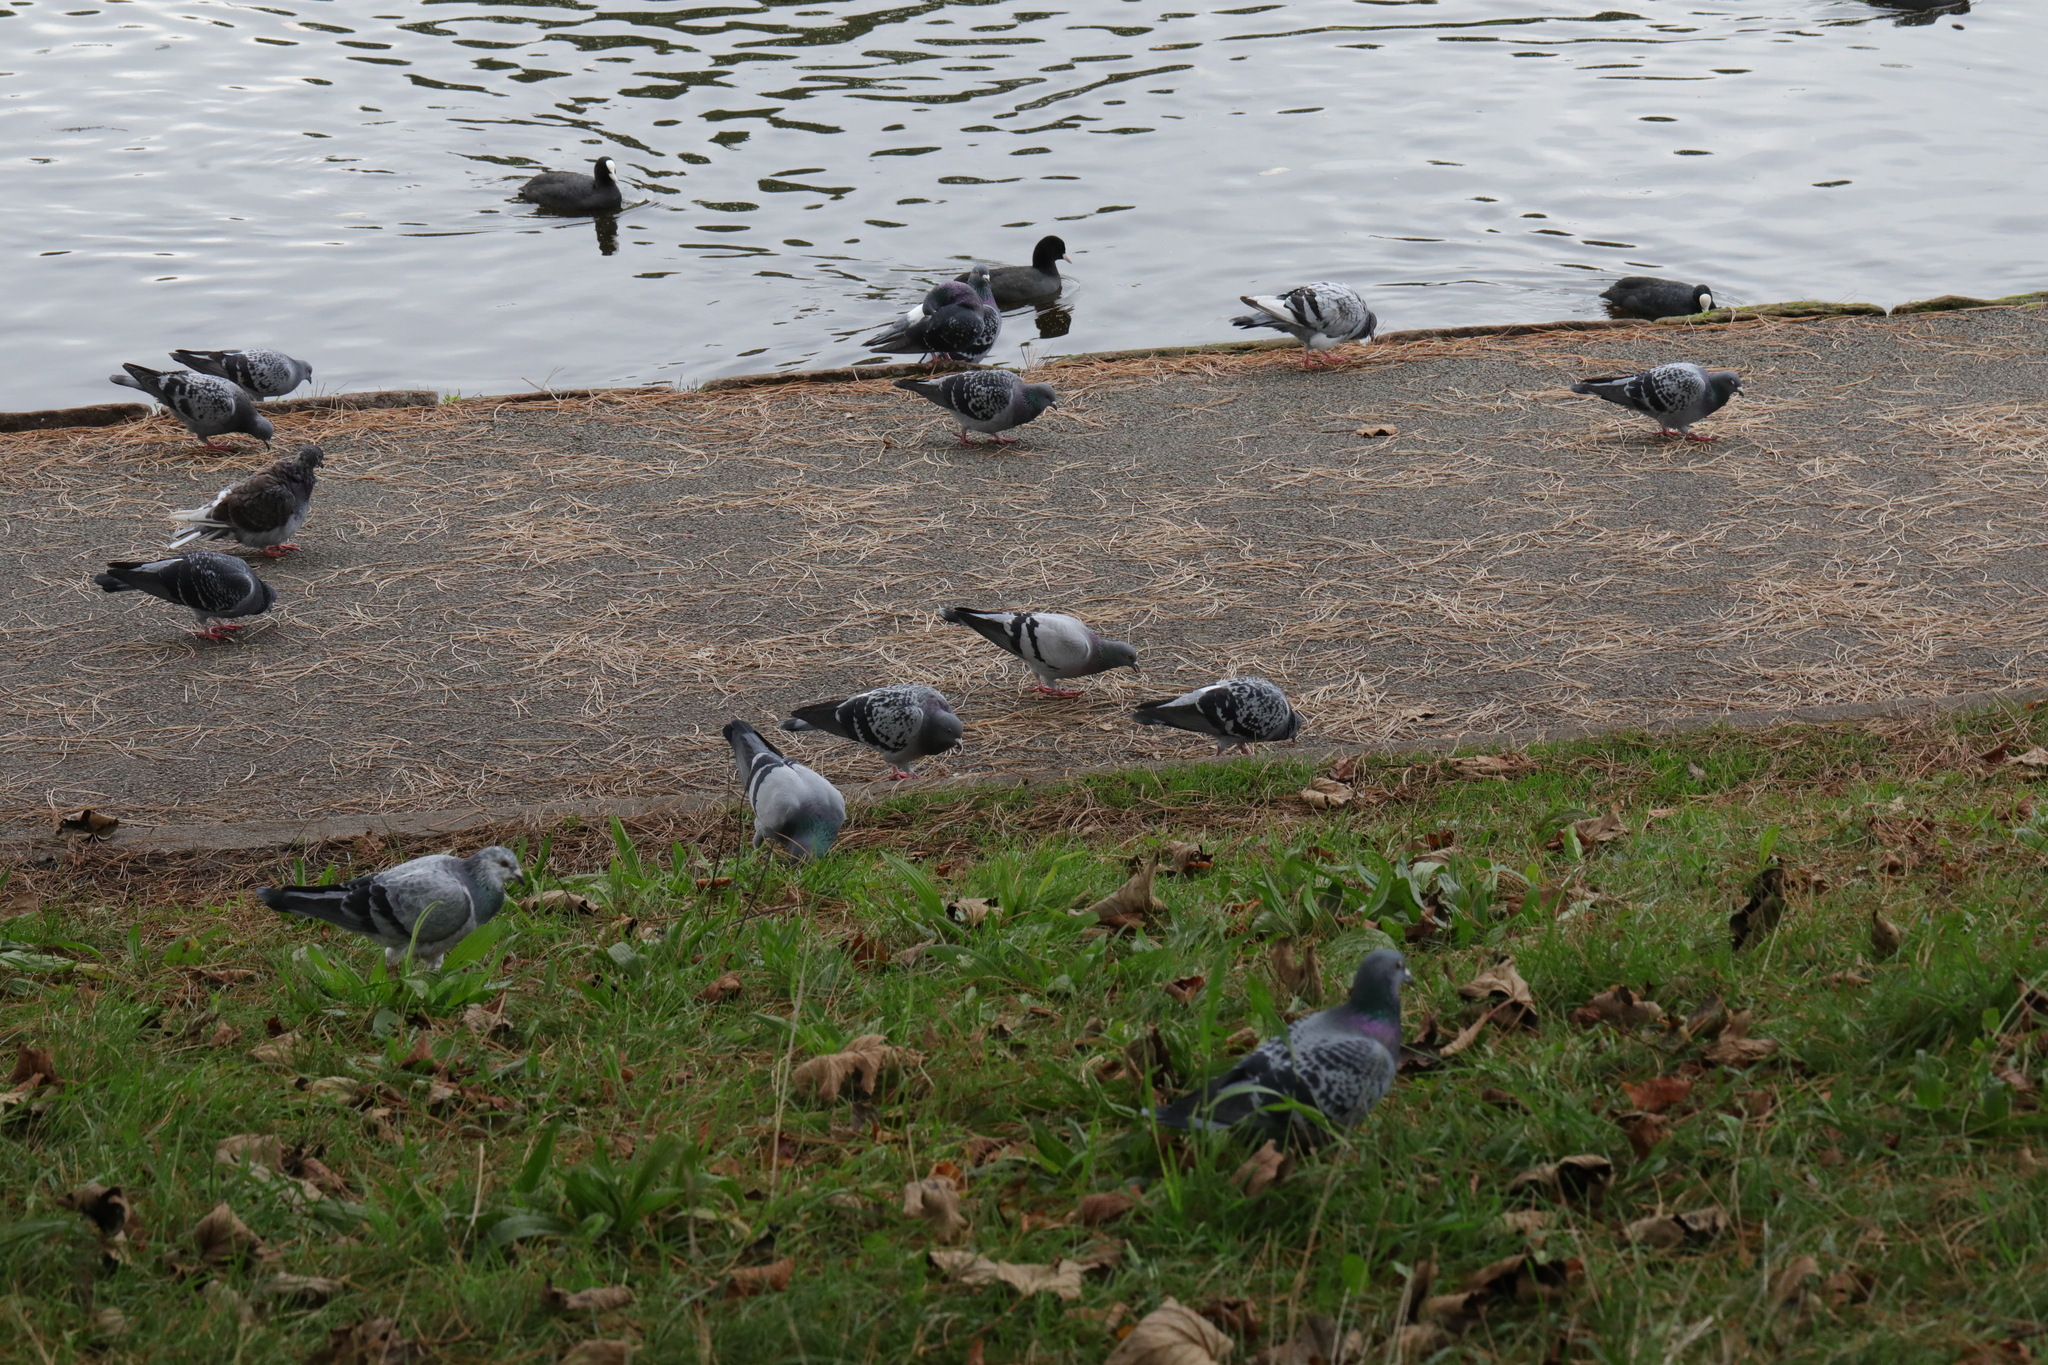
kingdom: Animalia
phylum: Chordata
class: Aves
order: Columbiformes
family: Columbidae
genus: Columba
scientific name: Columba livia
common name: Rock pigeon
